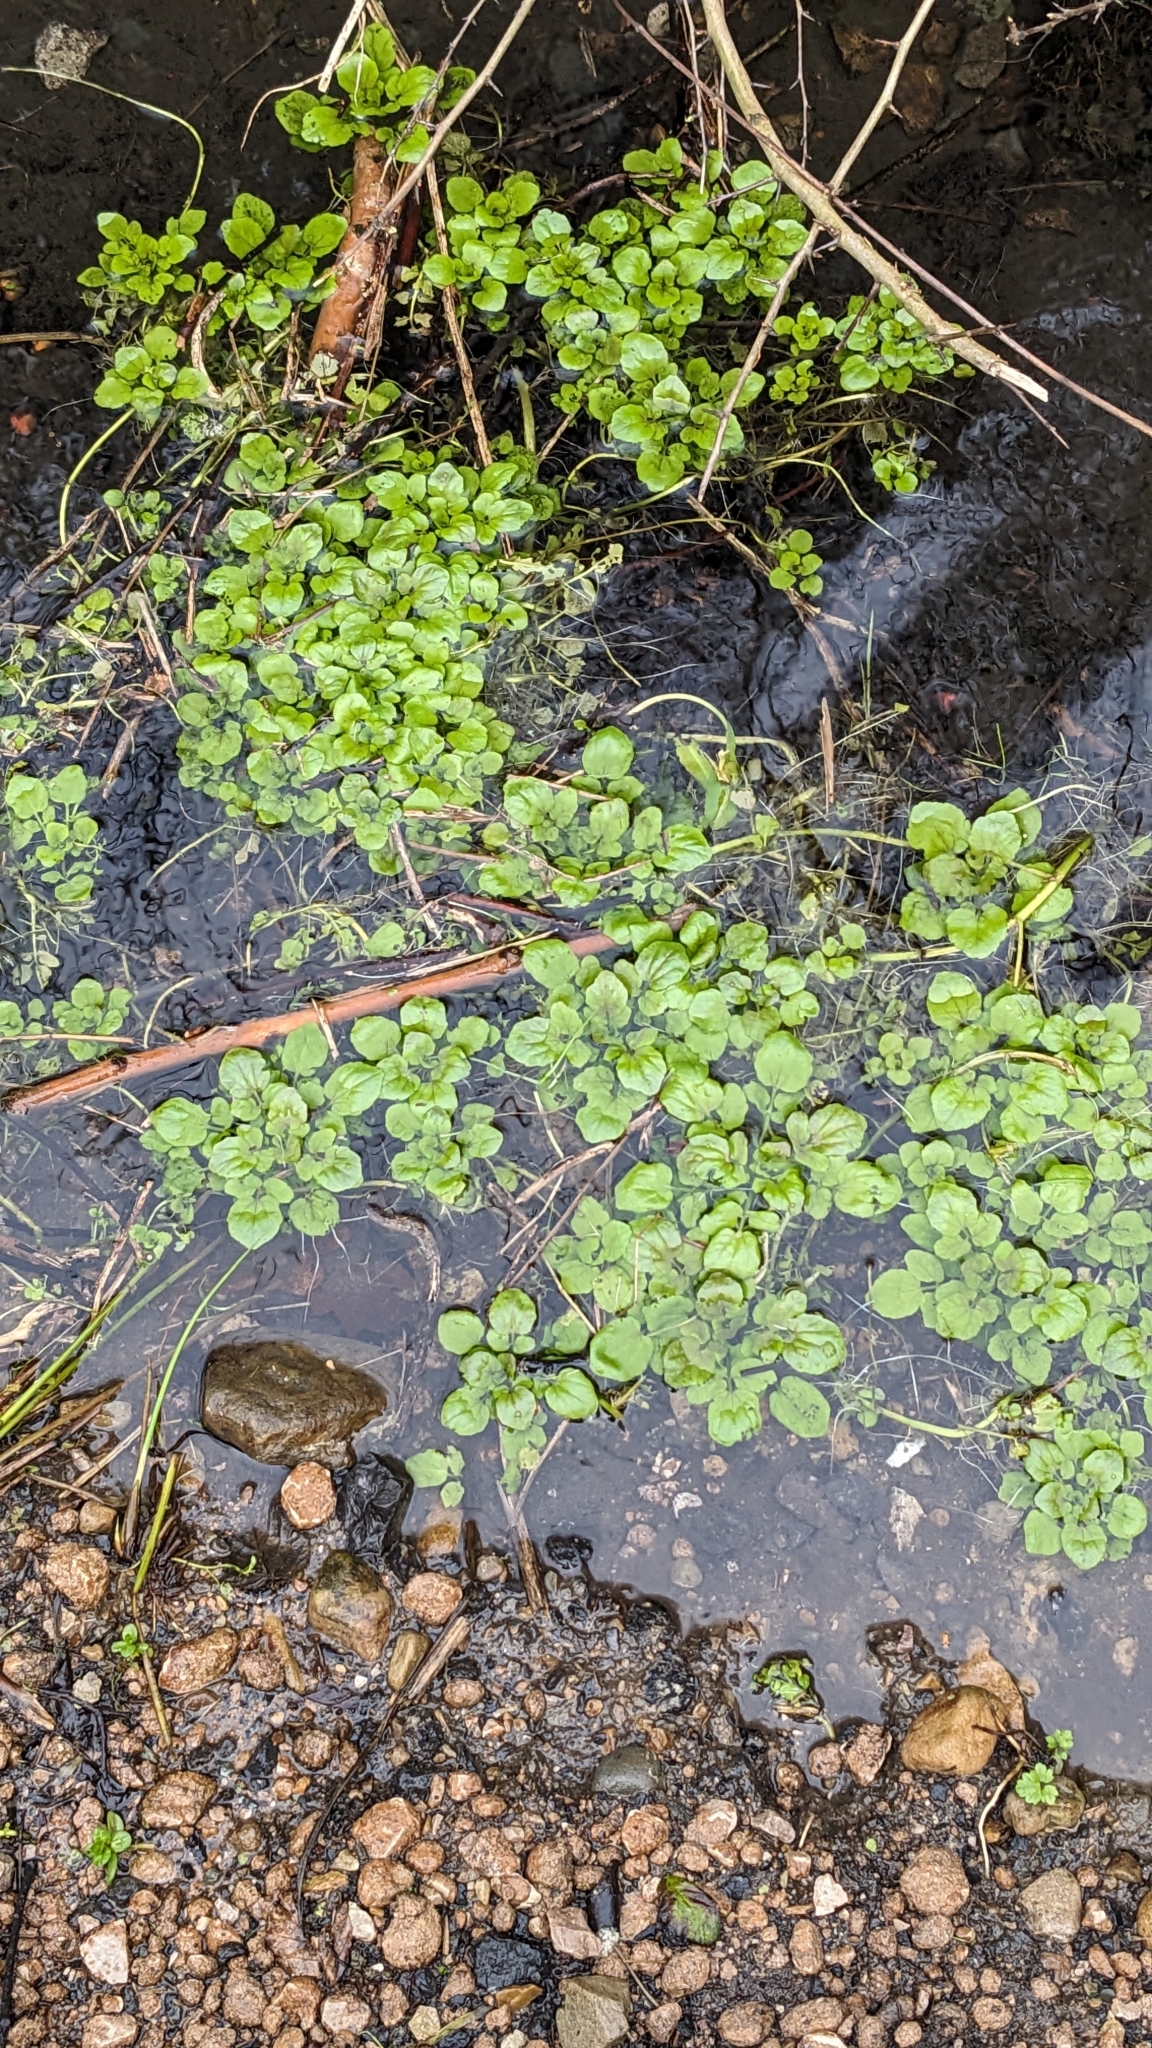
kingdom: Plantae
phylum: Tracheophyta
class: Magnoliopsida
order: Brassicales
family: Brassicaceae
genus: Nasturtium
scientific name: Nasturtium officinale
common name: Watercress
